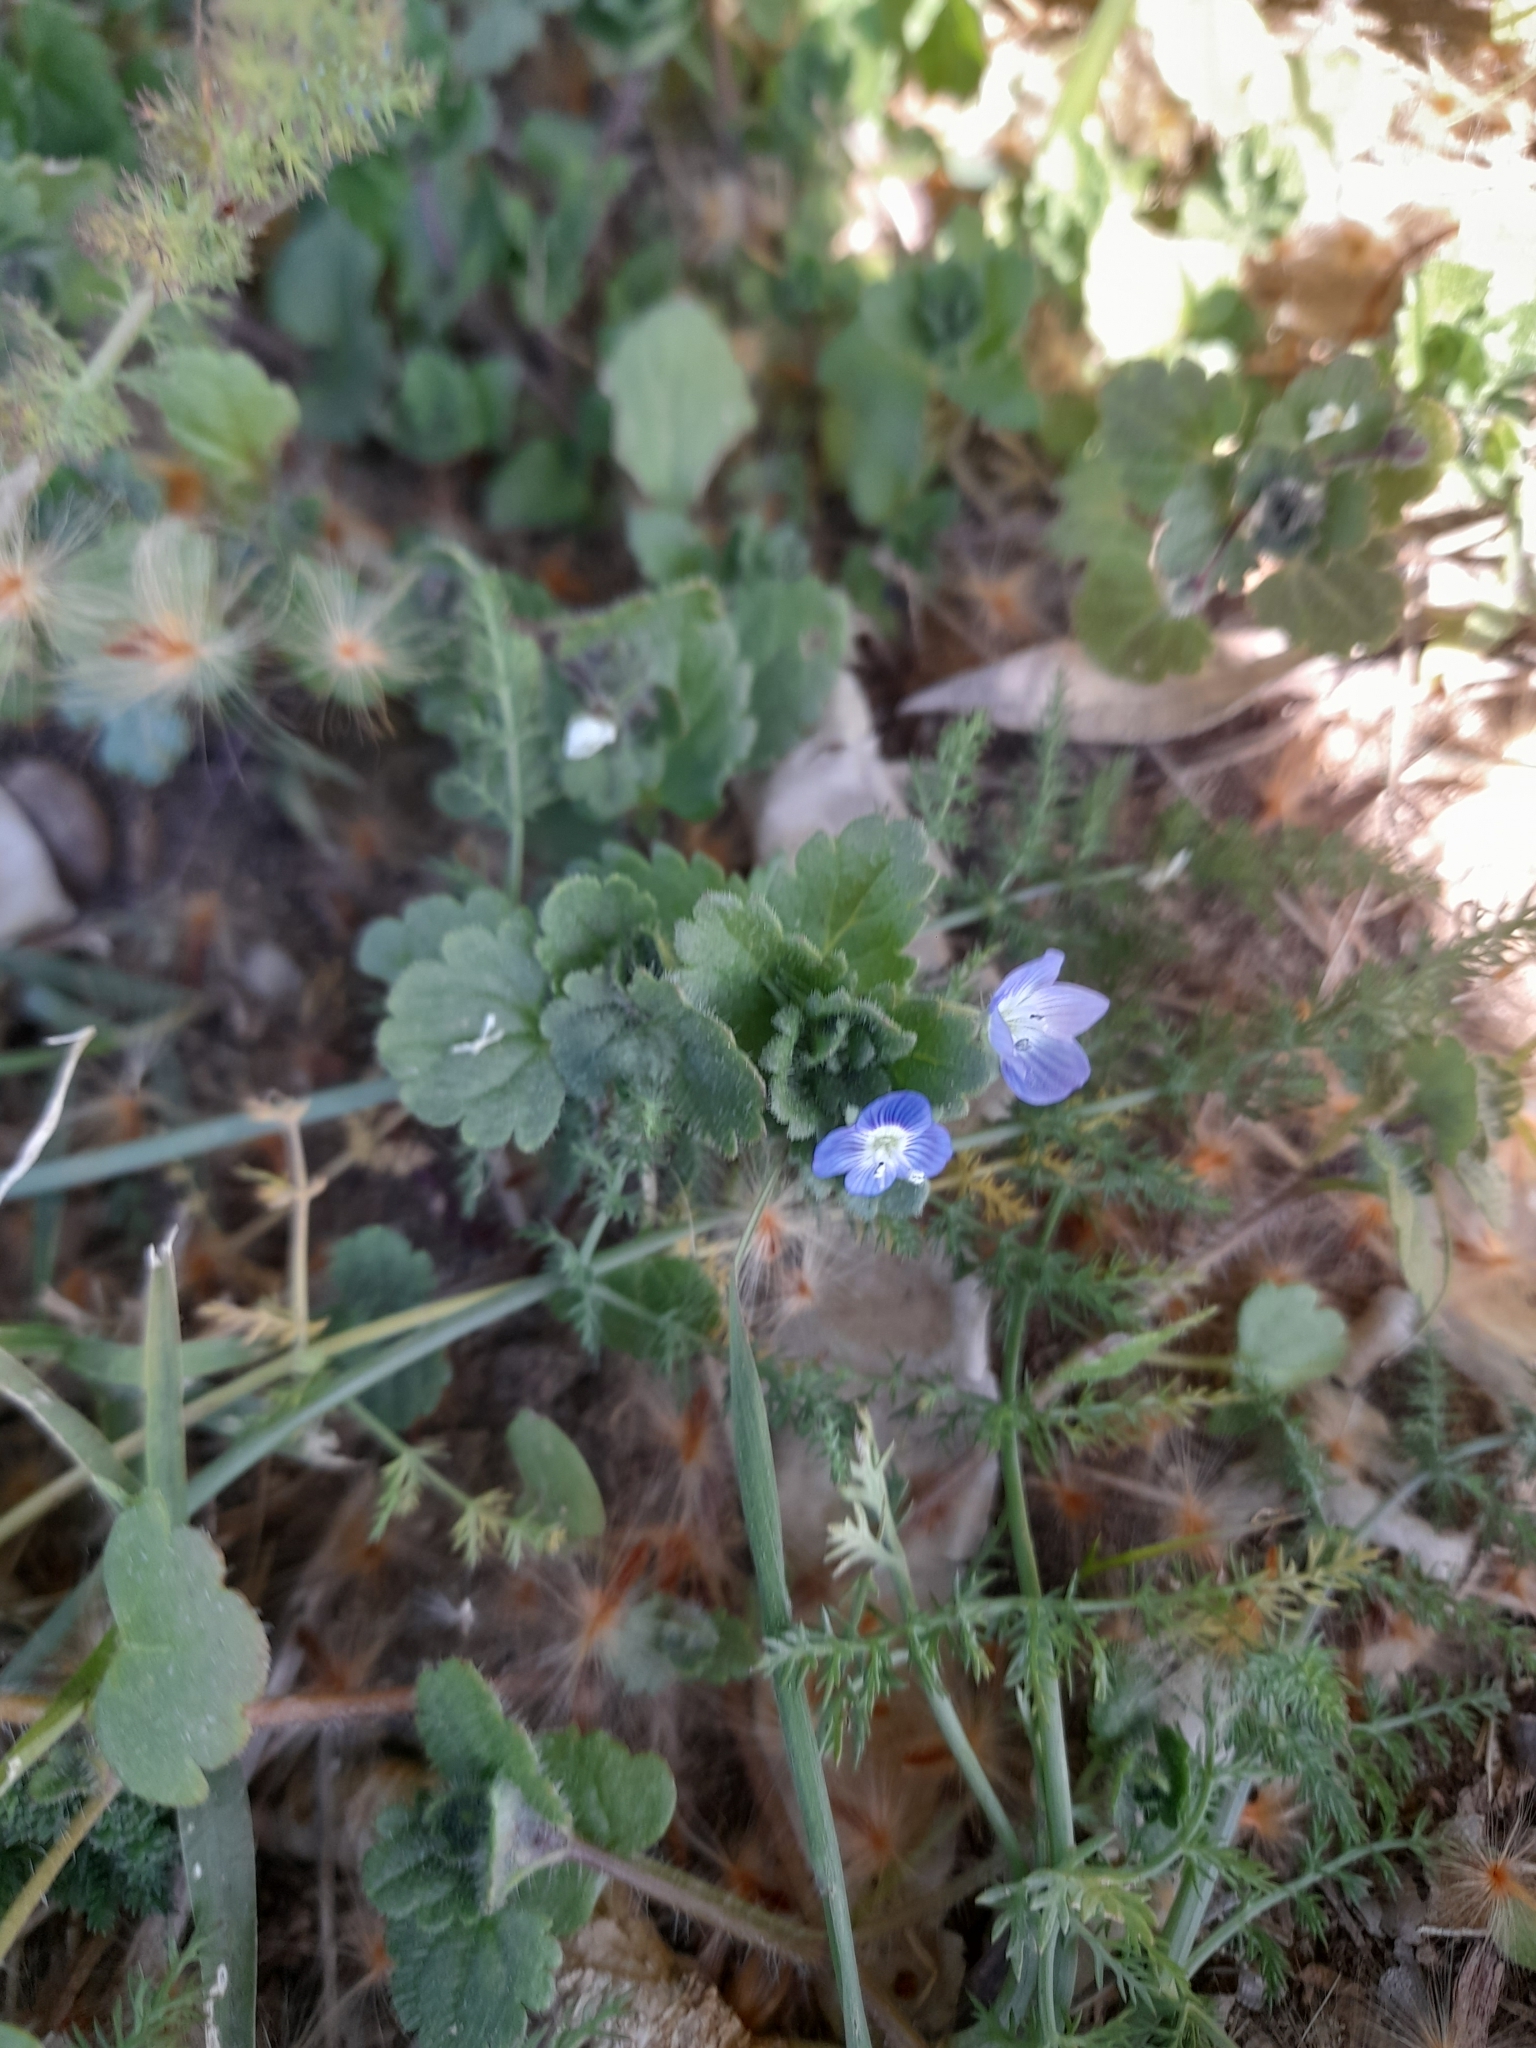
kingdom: Plantae
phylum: Tracheophyta
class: Magnoliopsida
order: Lamiales
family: Plantaginaceae
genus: Veronica
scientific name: Veronica persica
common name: Common field-speedwell
